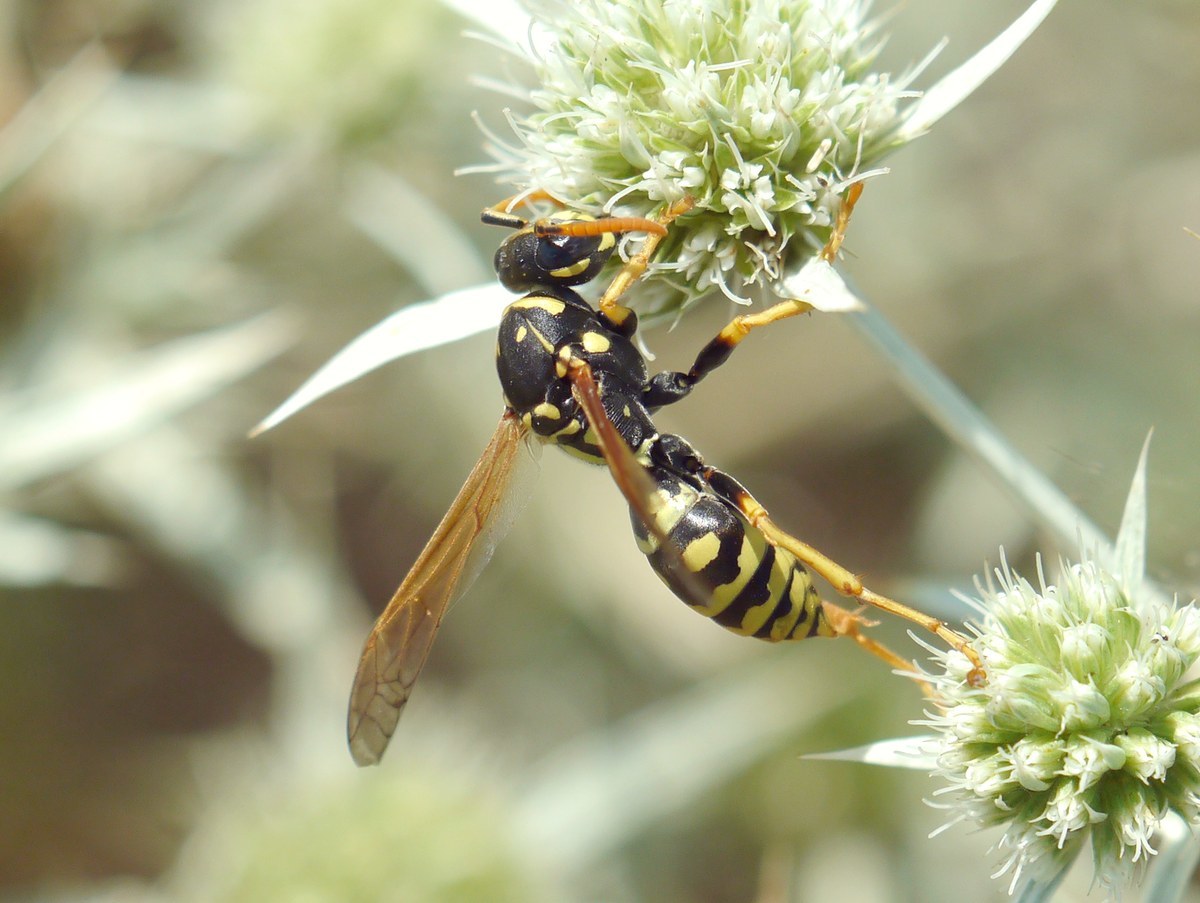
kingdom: Animalia
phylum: Arthropoda
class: Insecta
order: Hymenoptera
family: Eumenidae
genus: Polistes
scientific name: Polistes dominula
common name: Paper wasp
